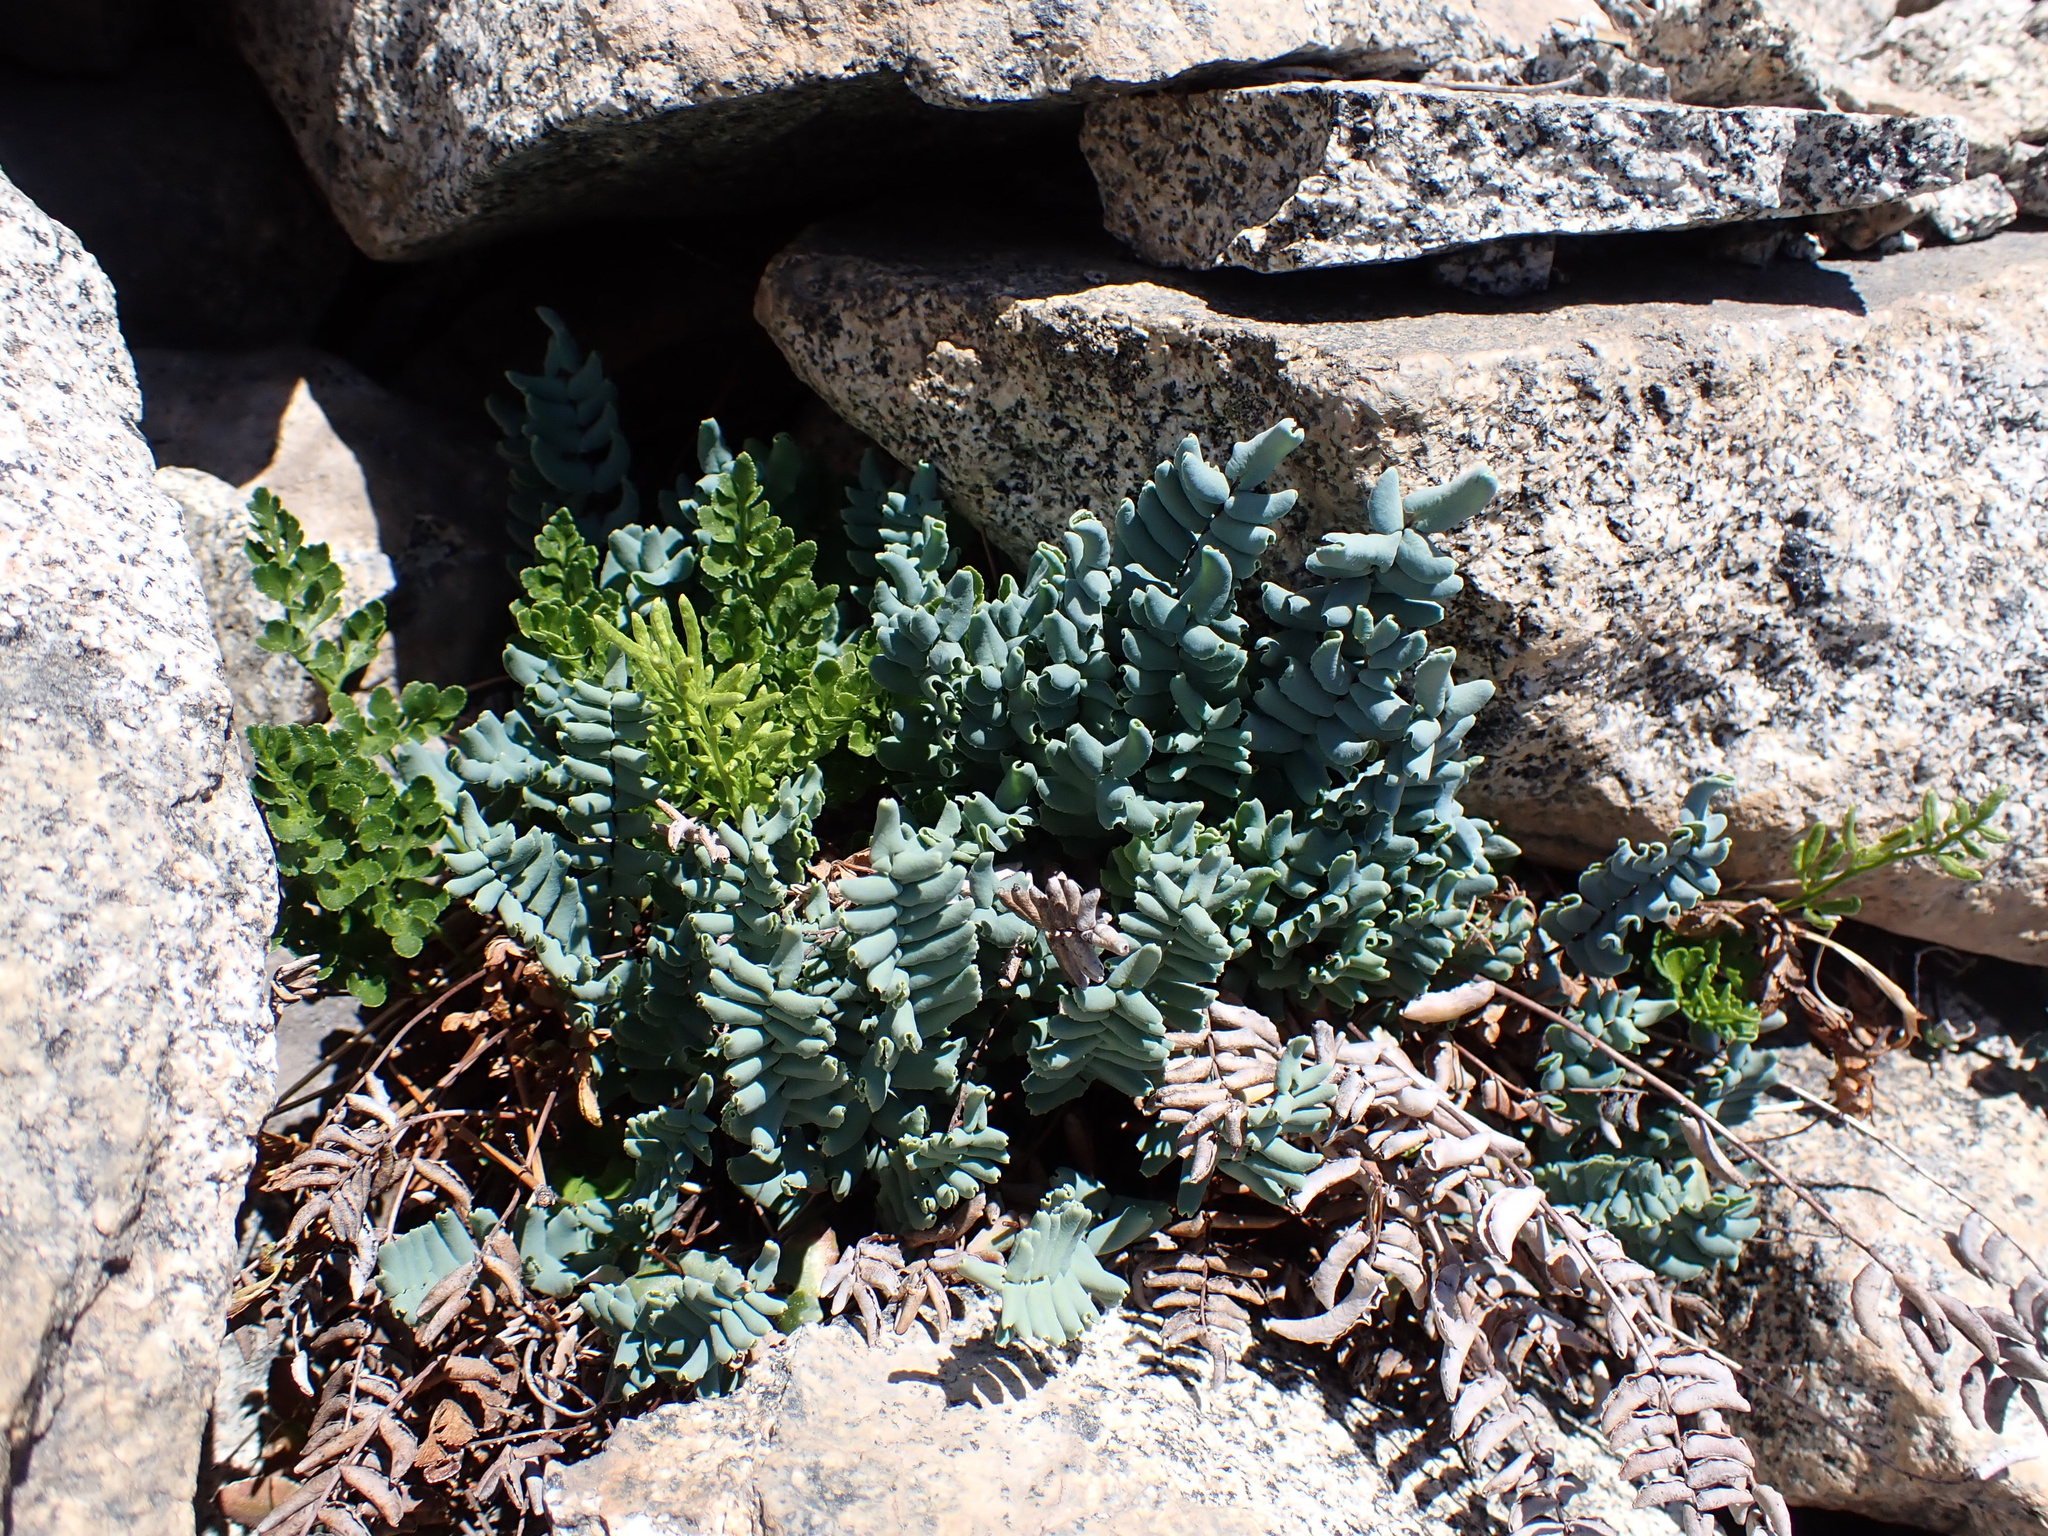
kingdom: Plantae
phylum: Tracheophyta
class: Polypodiopsida
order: Polypodiales
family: Pteridaceae
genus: Pellaea
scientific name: Pellaea bridgesii
